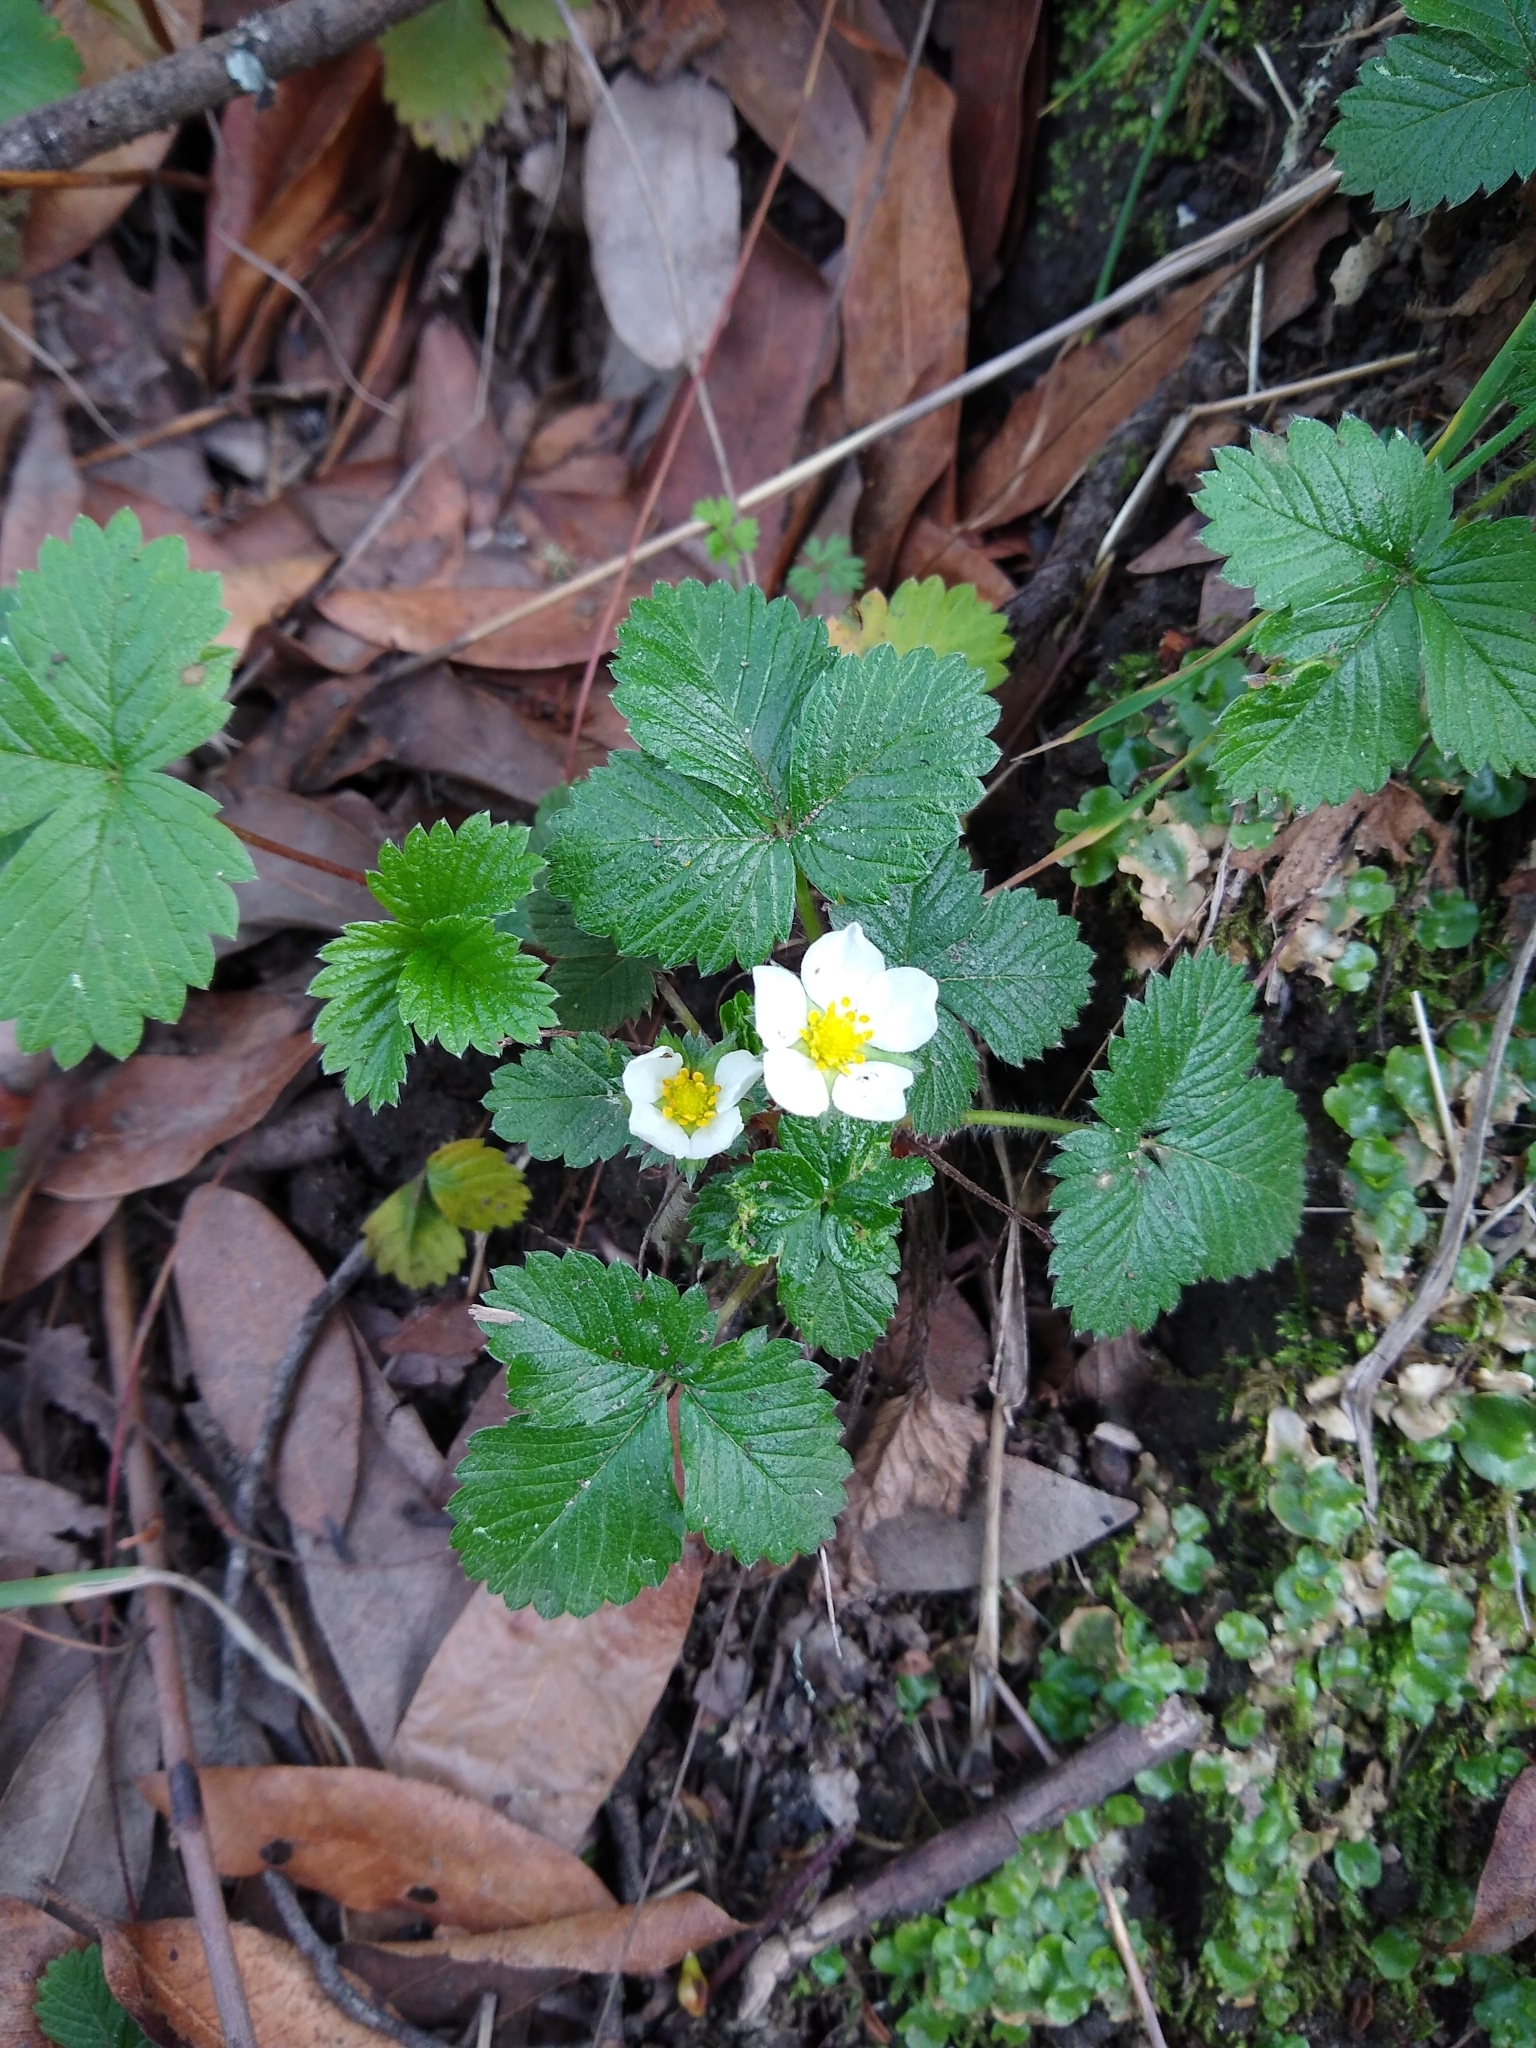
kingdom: Plantae
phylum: Tracheophyta
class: Magnoliopsida
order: Rosales
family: Rosaceae
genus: Fragaria
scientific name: Fragaria vesca
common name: Wild strawberry
